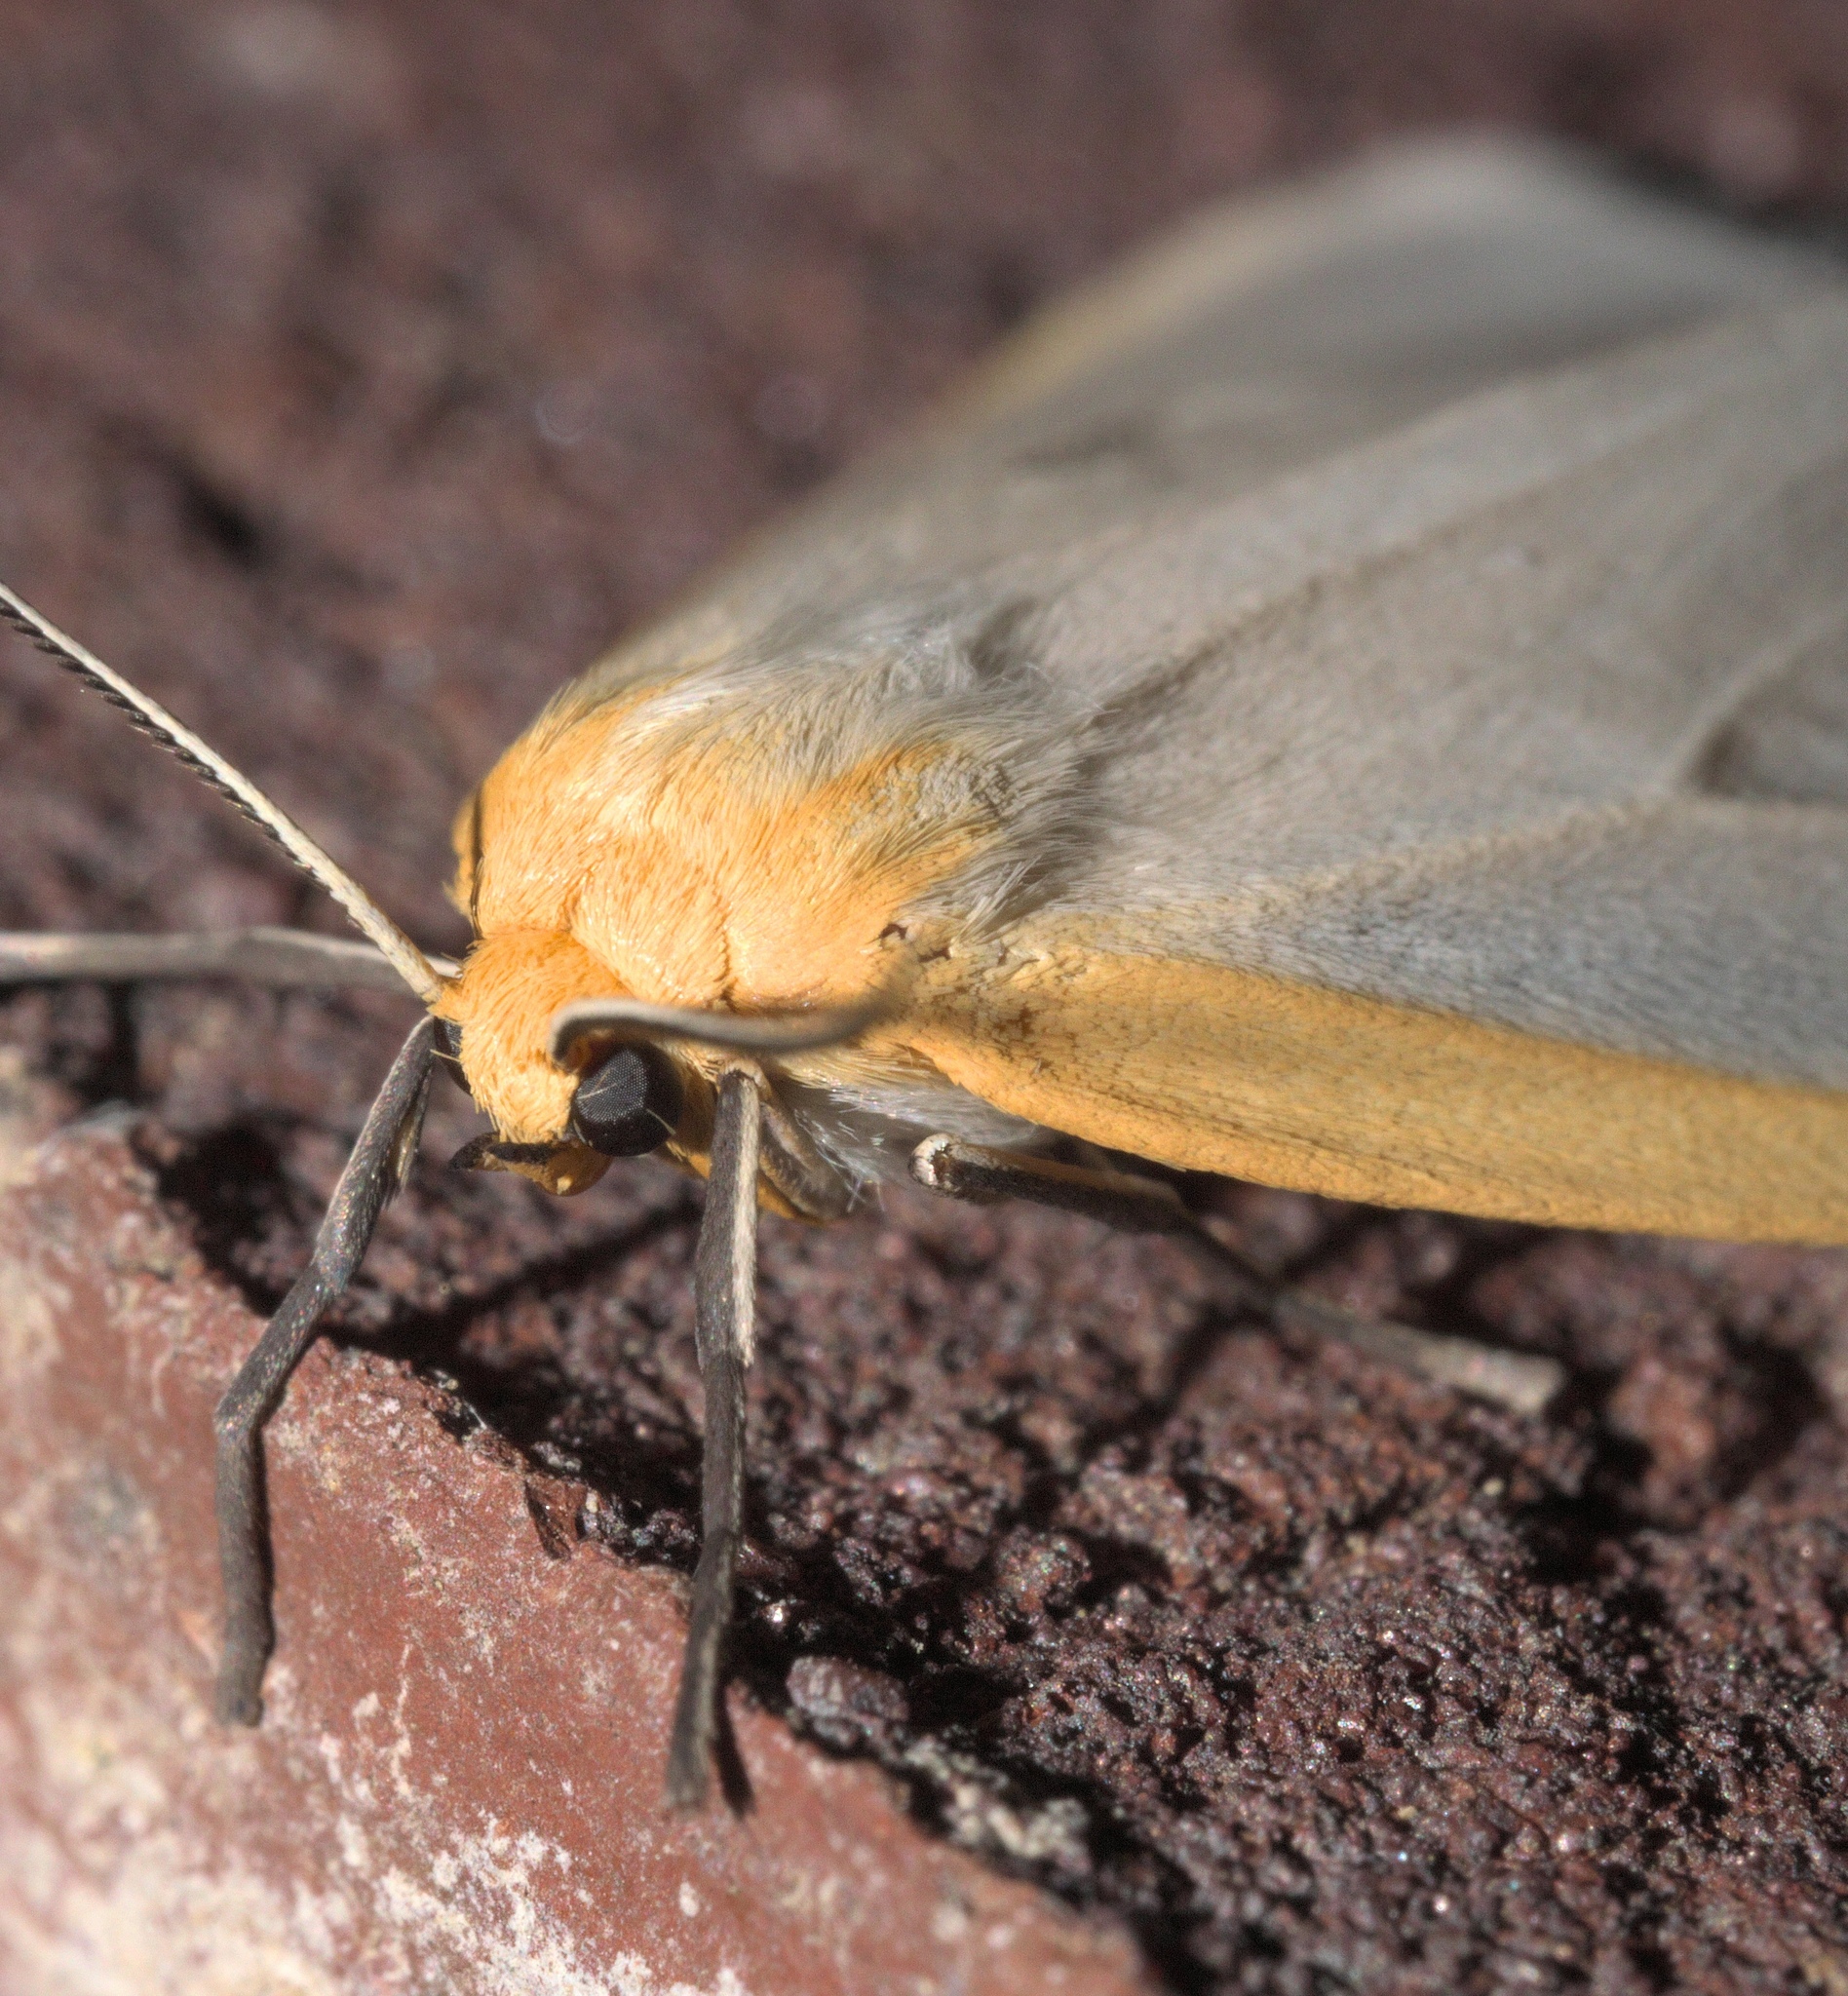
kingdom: Animalia
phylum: Arthropoda
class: Insecta
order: Lepidoptera
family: Erebidae
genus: Cycnia
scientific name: Cycnia tenera
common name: Delicate cycnia moth
